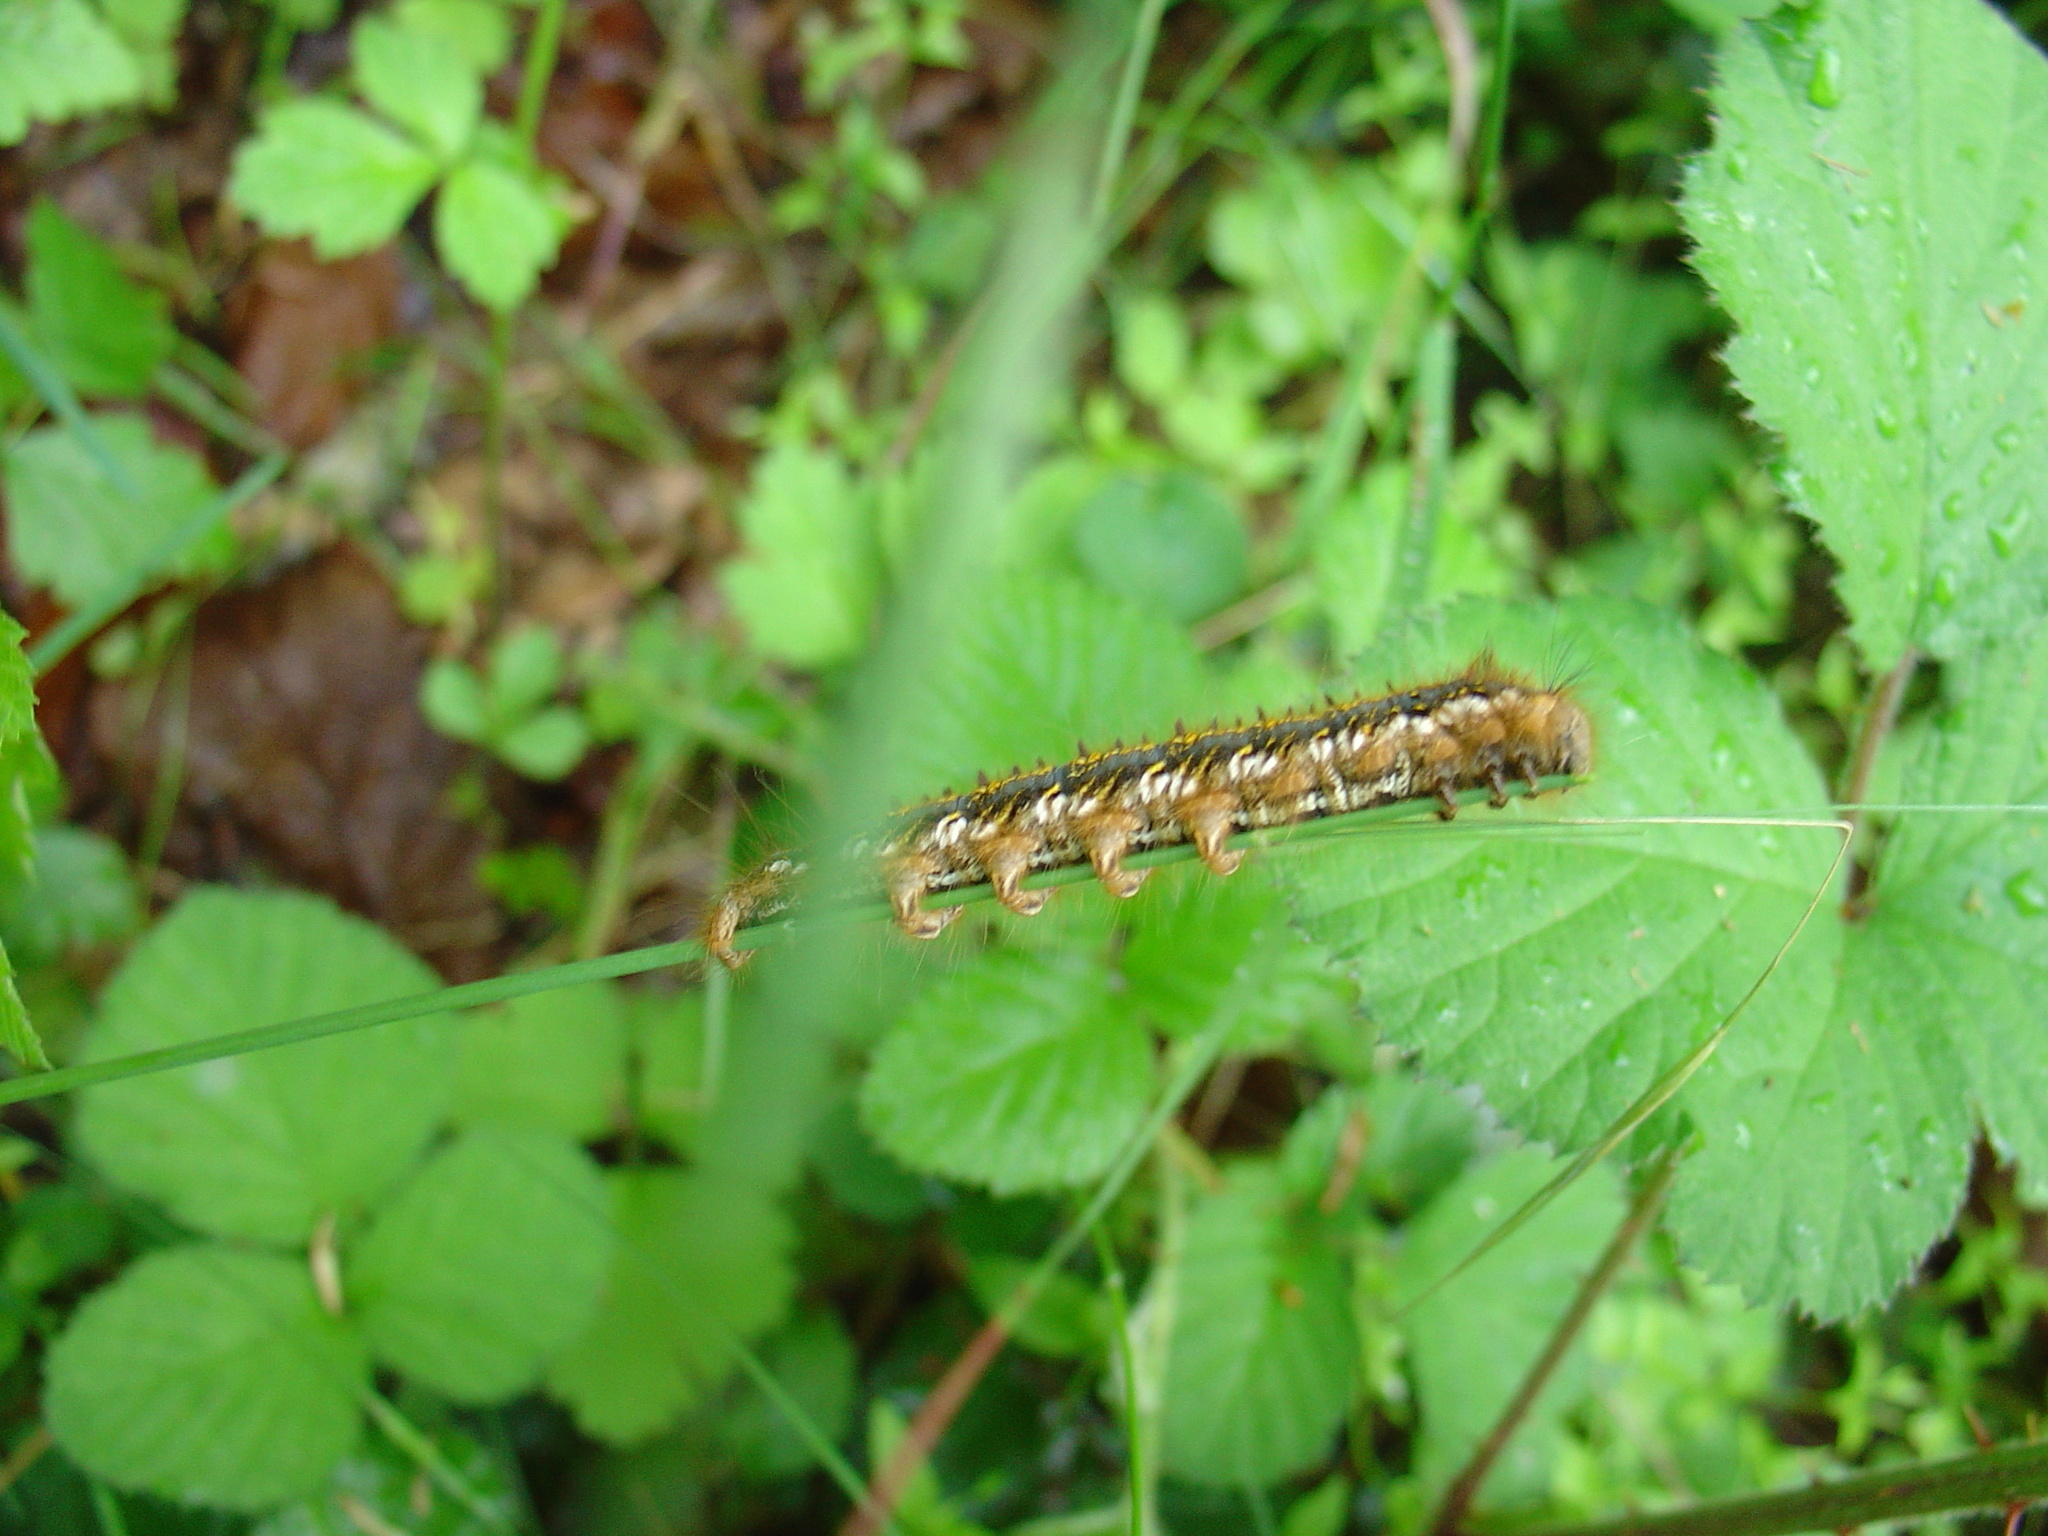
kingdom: Animalia
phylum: Arthropoda
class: Insecta
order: Lepidoptera
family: Lasiocampidae
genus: Euthrix
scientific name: Euthrix potatoria
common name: Drinker
